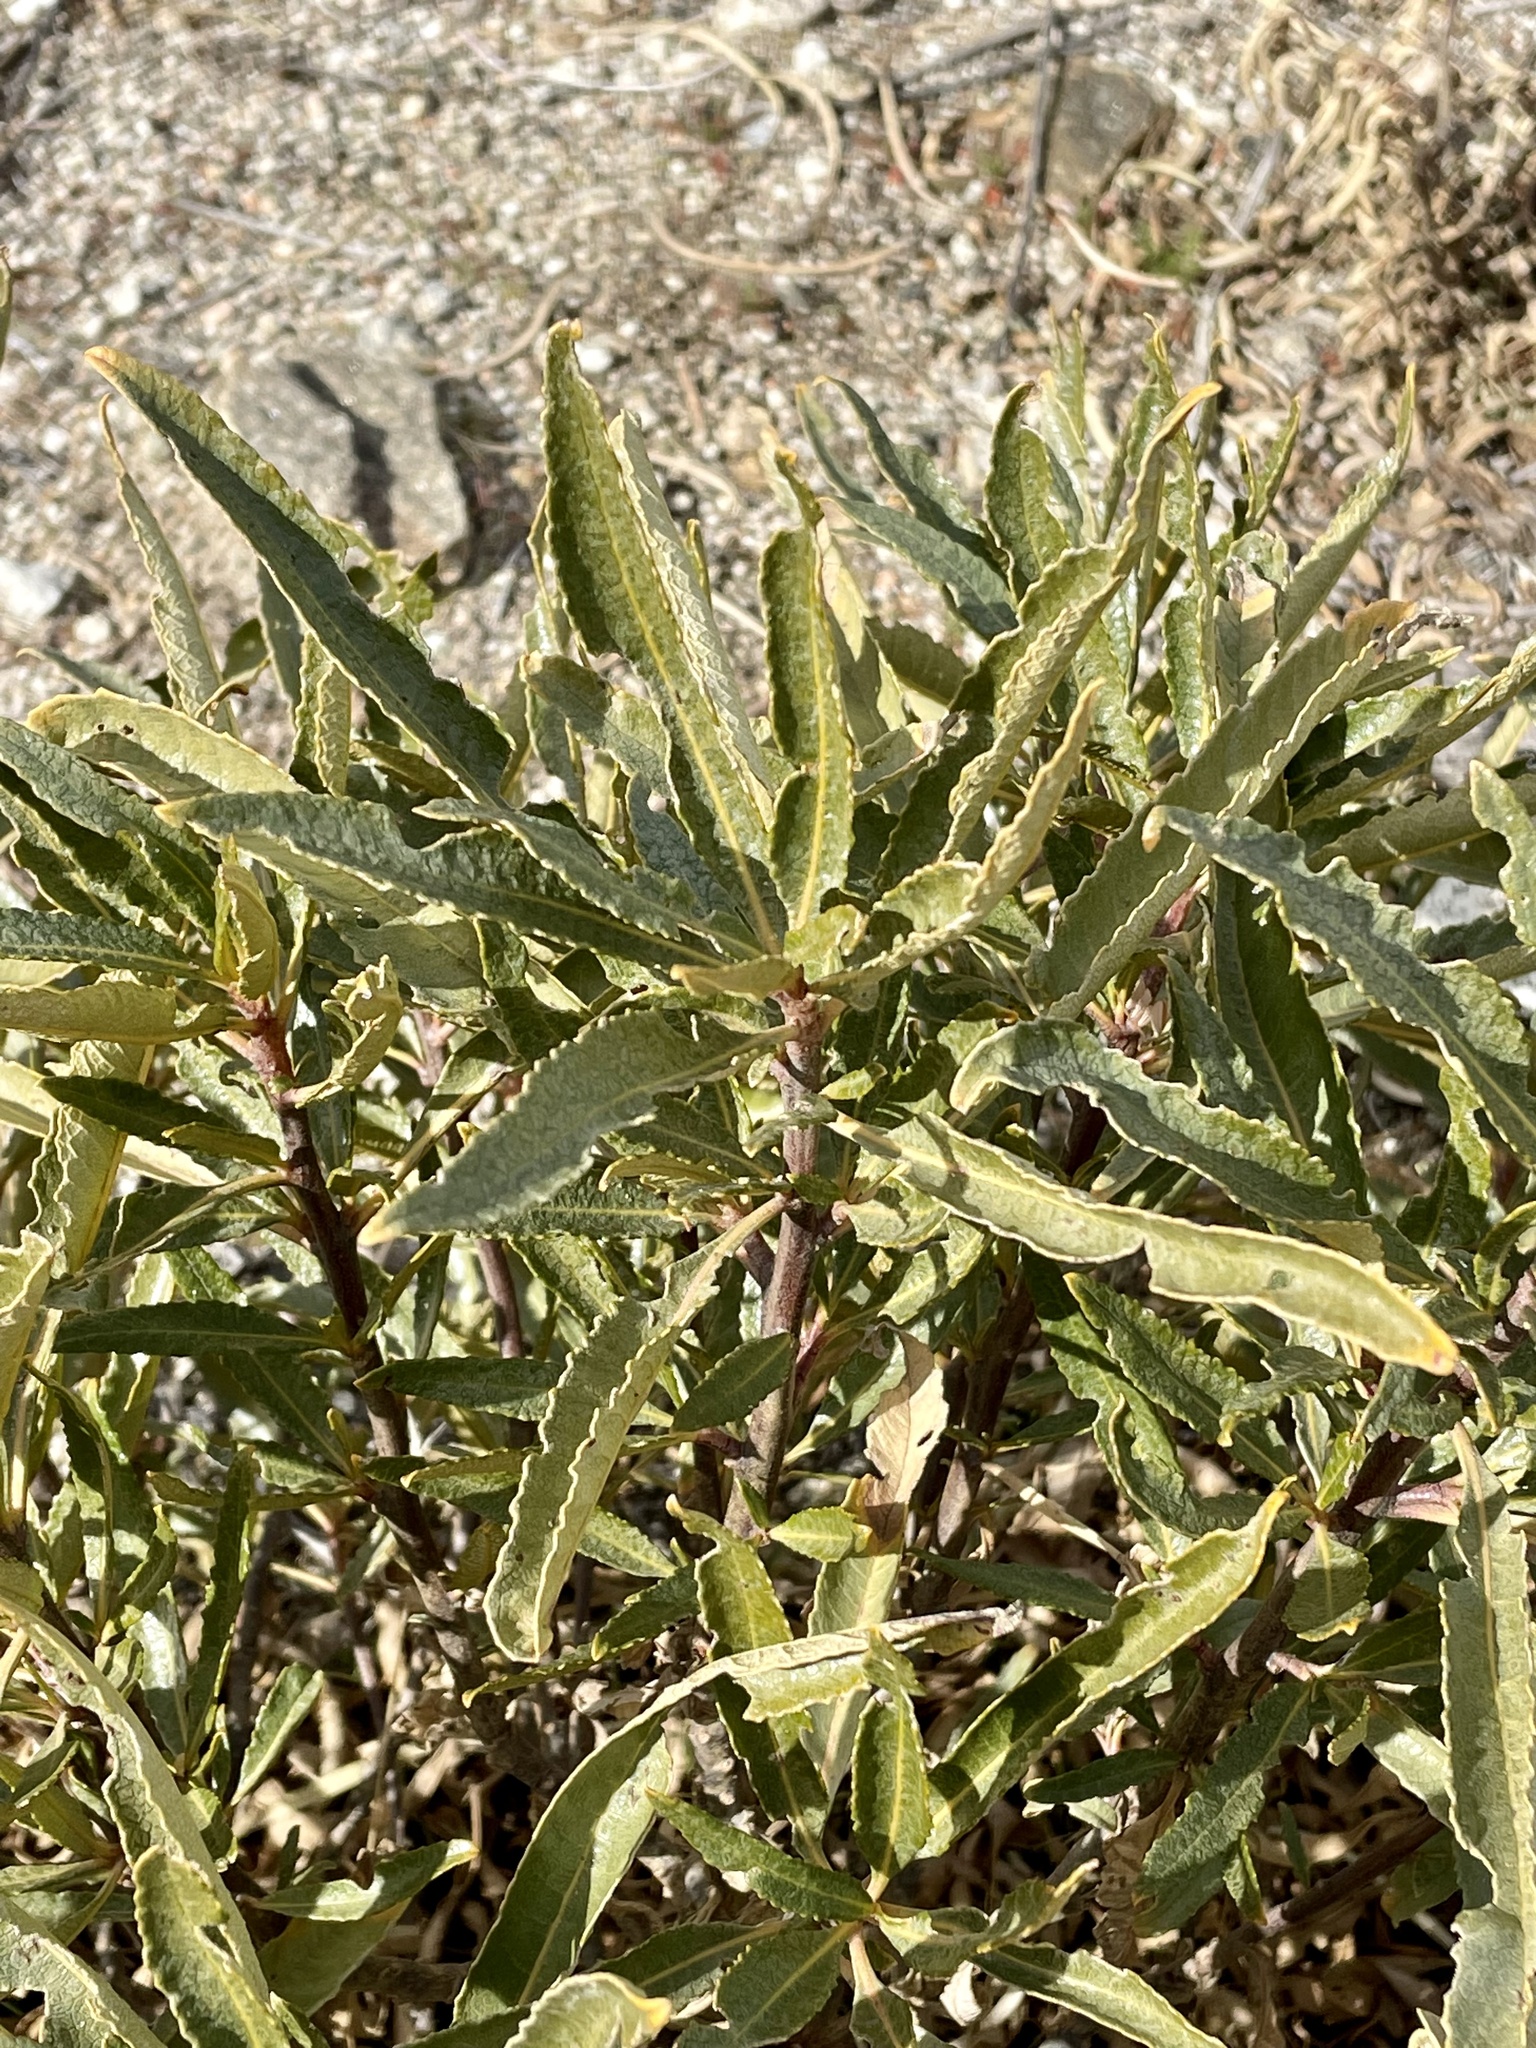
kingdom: Plantae
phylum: Tracheophyta
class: Magnoliopsida
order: Boraginales
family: Namaceae
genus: Eriodictyon
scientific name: Eriodictyon trichocalyx
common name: Hairy yerba-santa
